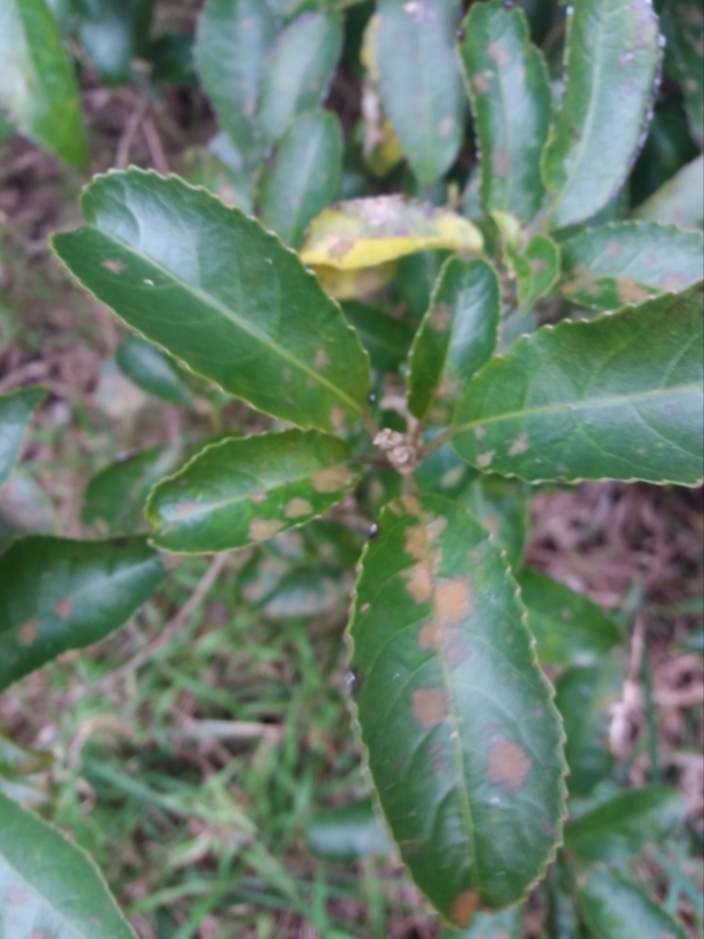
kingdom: Plantae
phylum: Chlorophyta
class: Ulvophyceae
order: Trentepohliales
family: Trentepohliaceae
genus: Cephaleuros
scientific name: Cephaleuros
